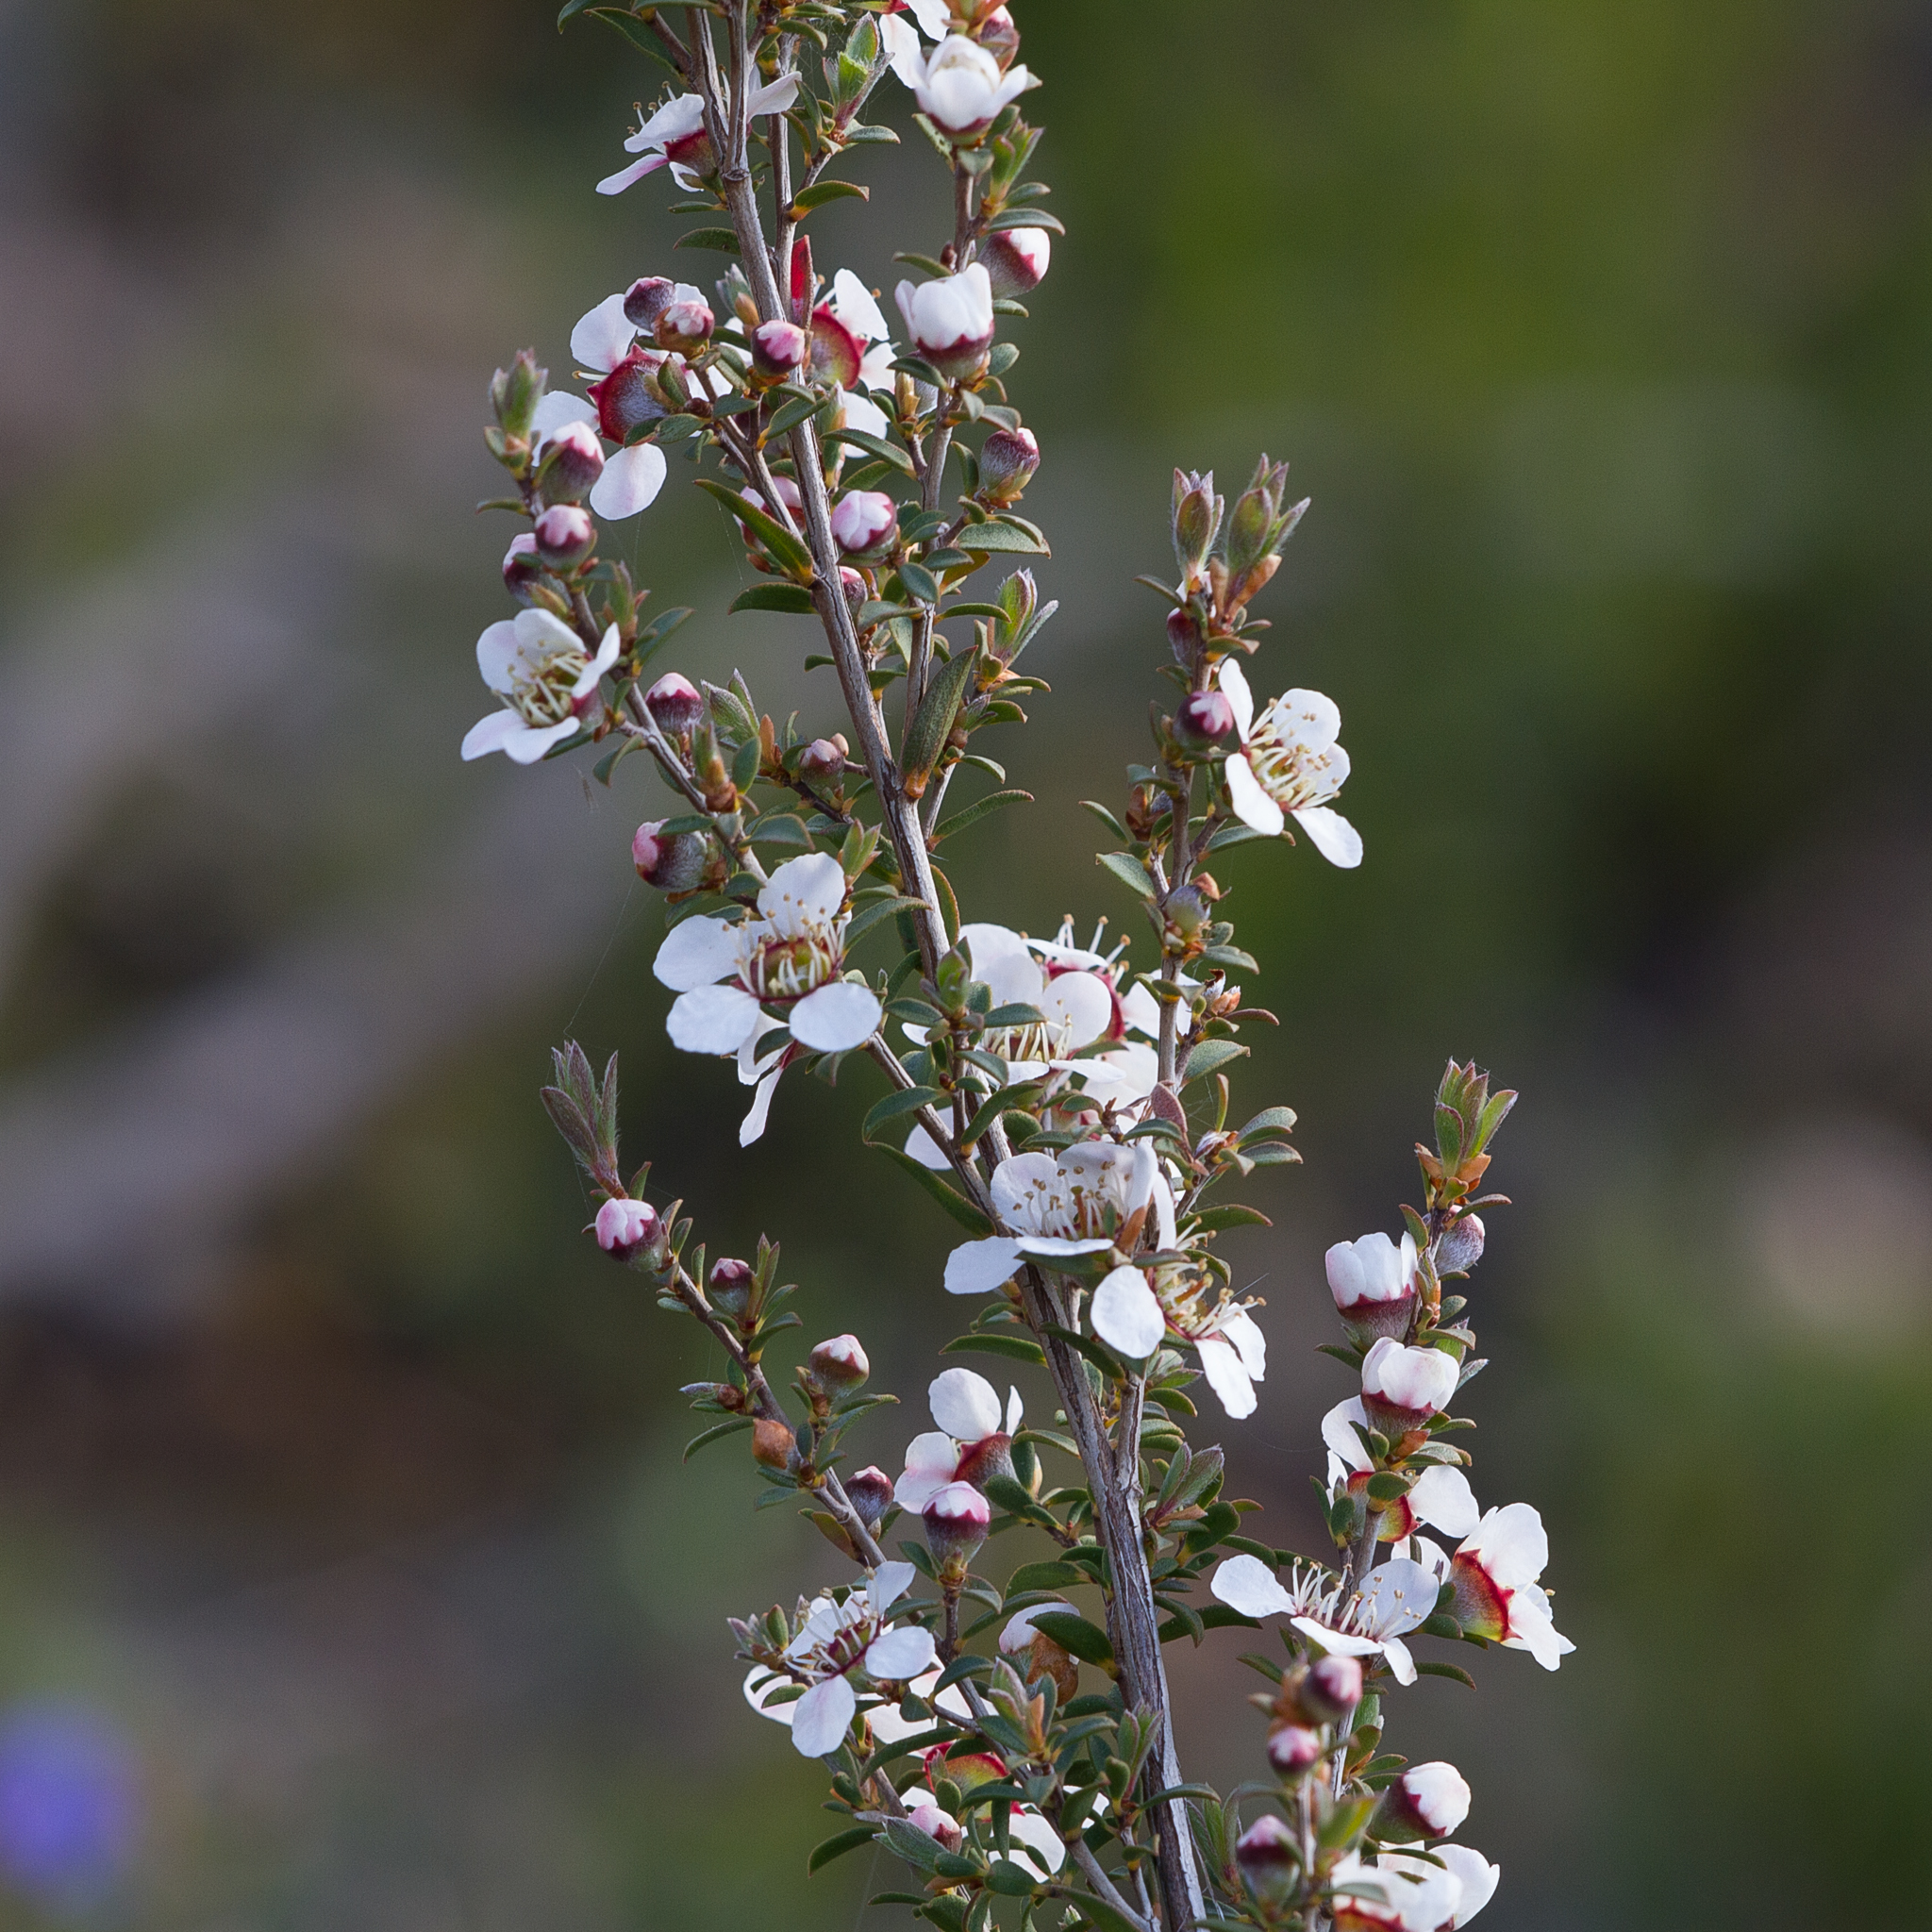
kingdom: Plantae
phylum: Tracheophyta
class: Magnoliopsida
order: Myrtales
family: Myrtaceae
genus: Leptospermum
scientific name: Leptospermum myrsinoides
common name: Heath teatree
